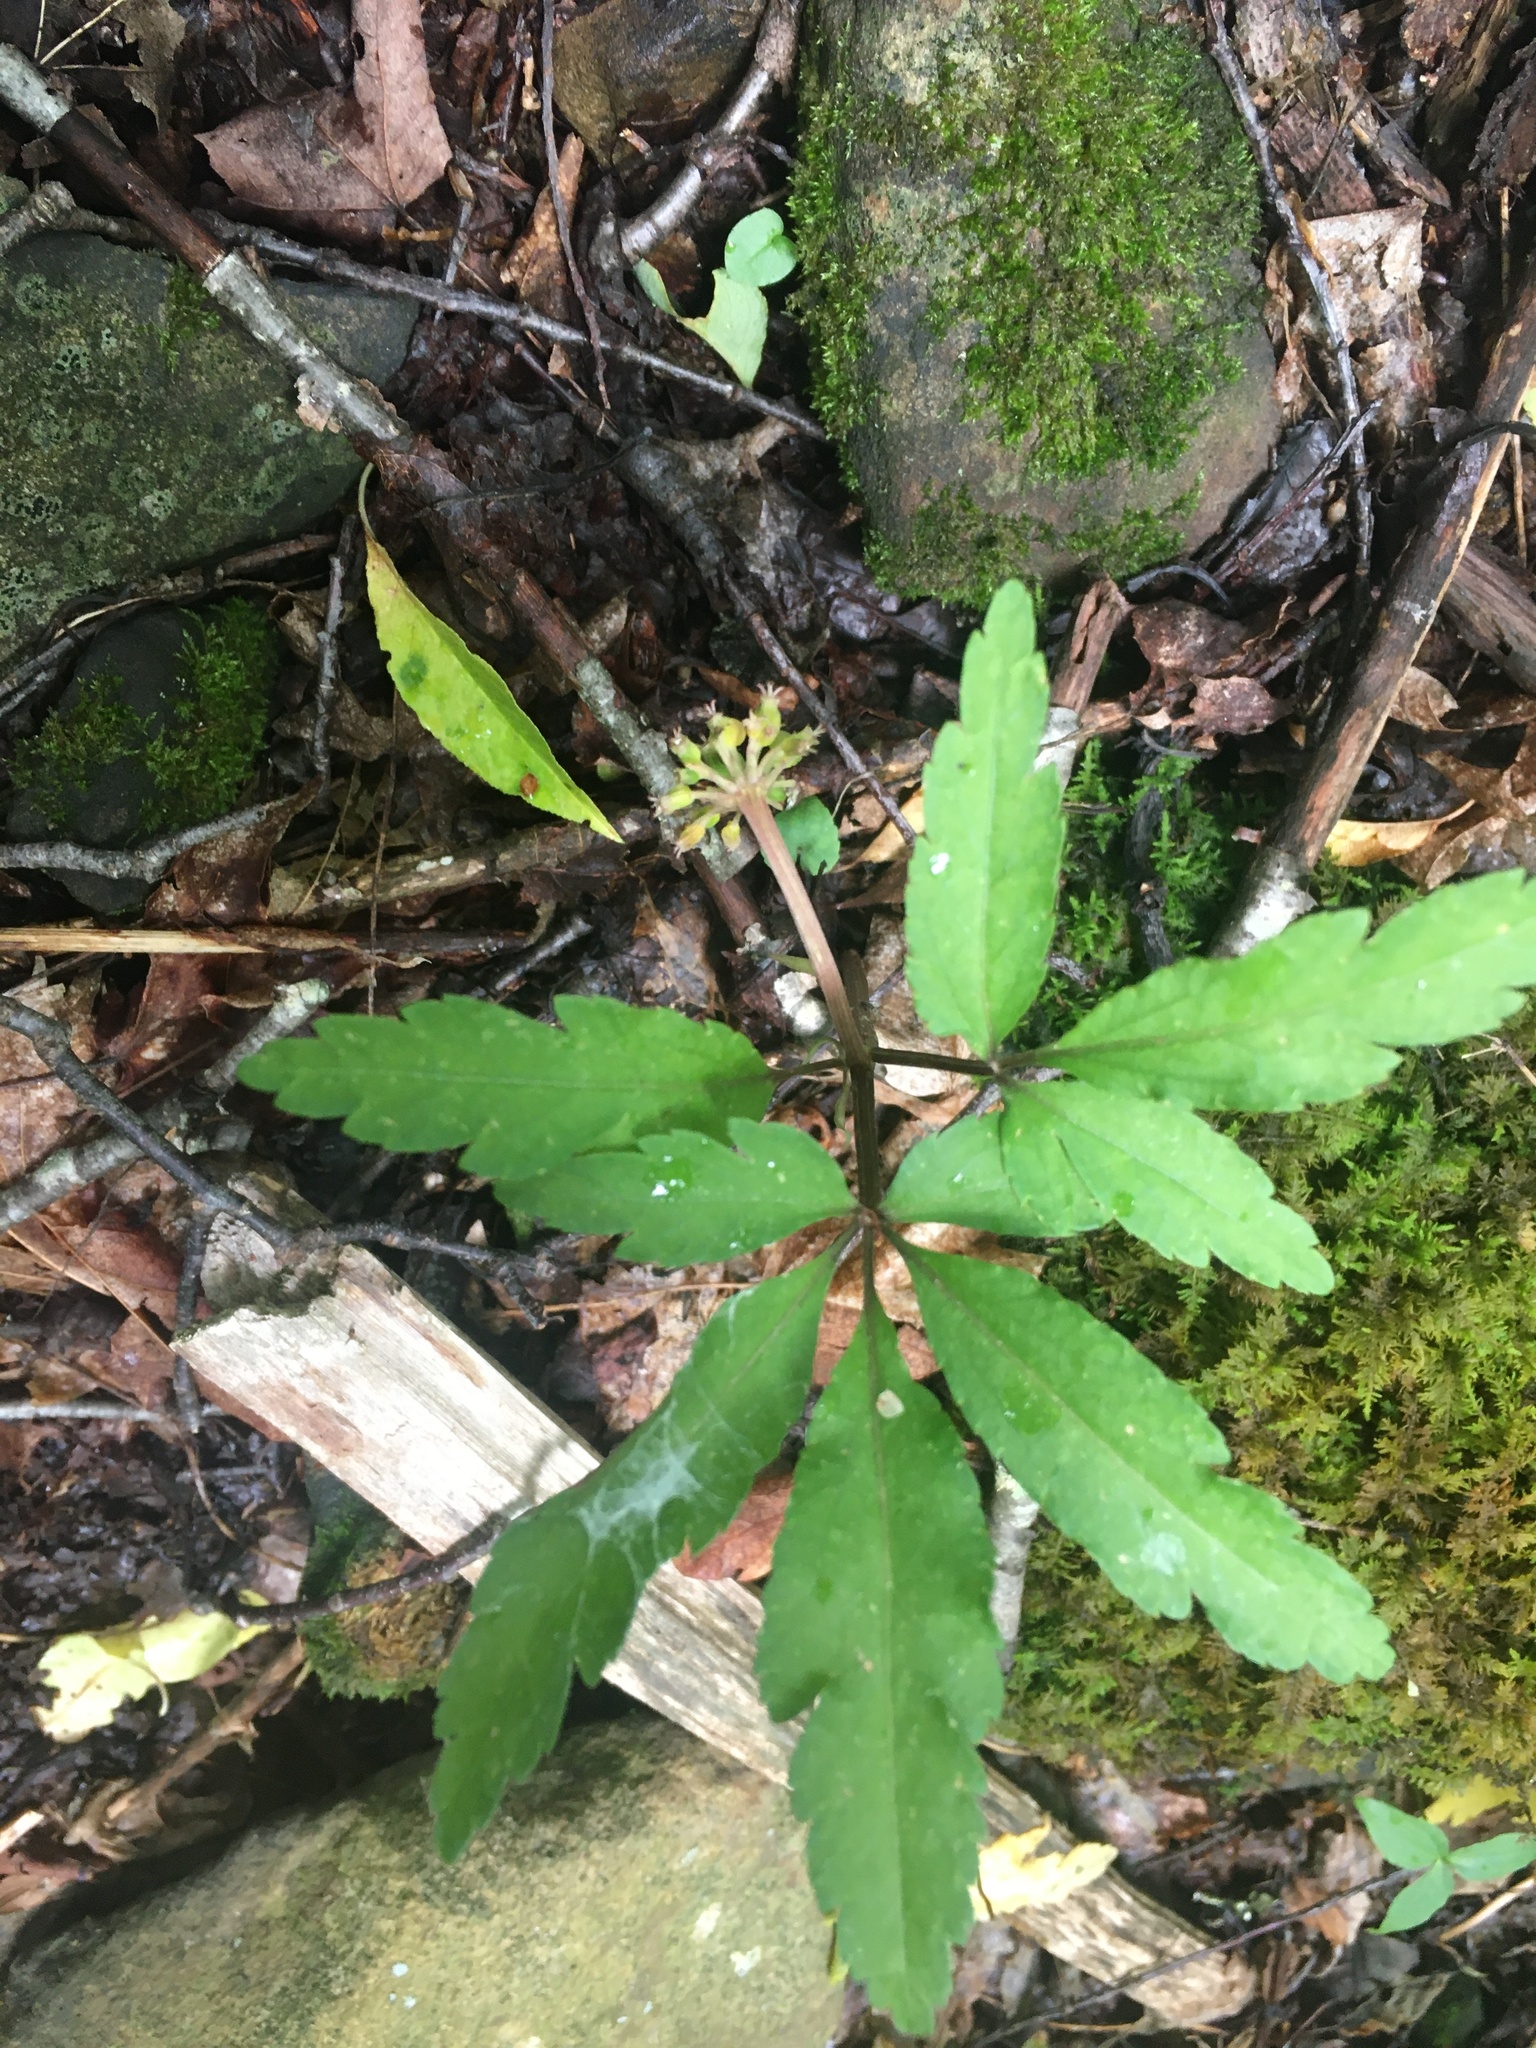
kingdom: Plantae
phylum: Tracheophyta
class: Magnoliopsida
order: Apiales
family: Araliaceae
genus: Panax
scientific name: Panax trifolius
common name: Dwarf ginseng
